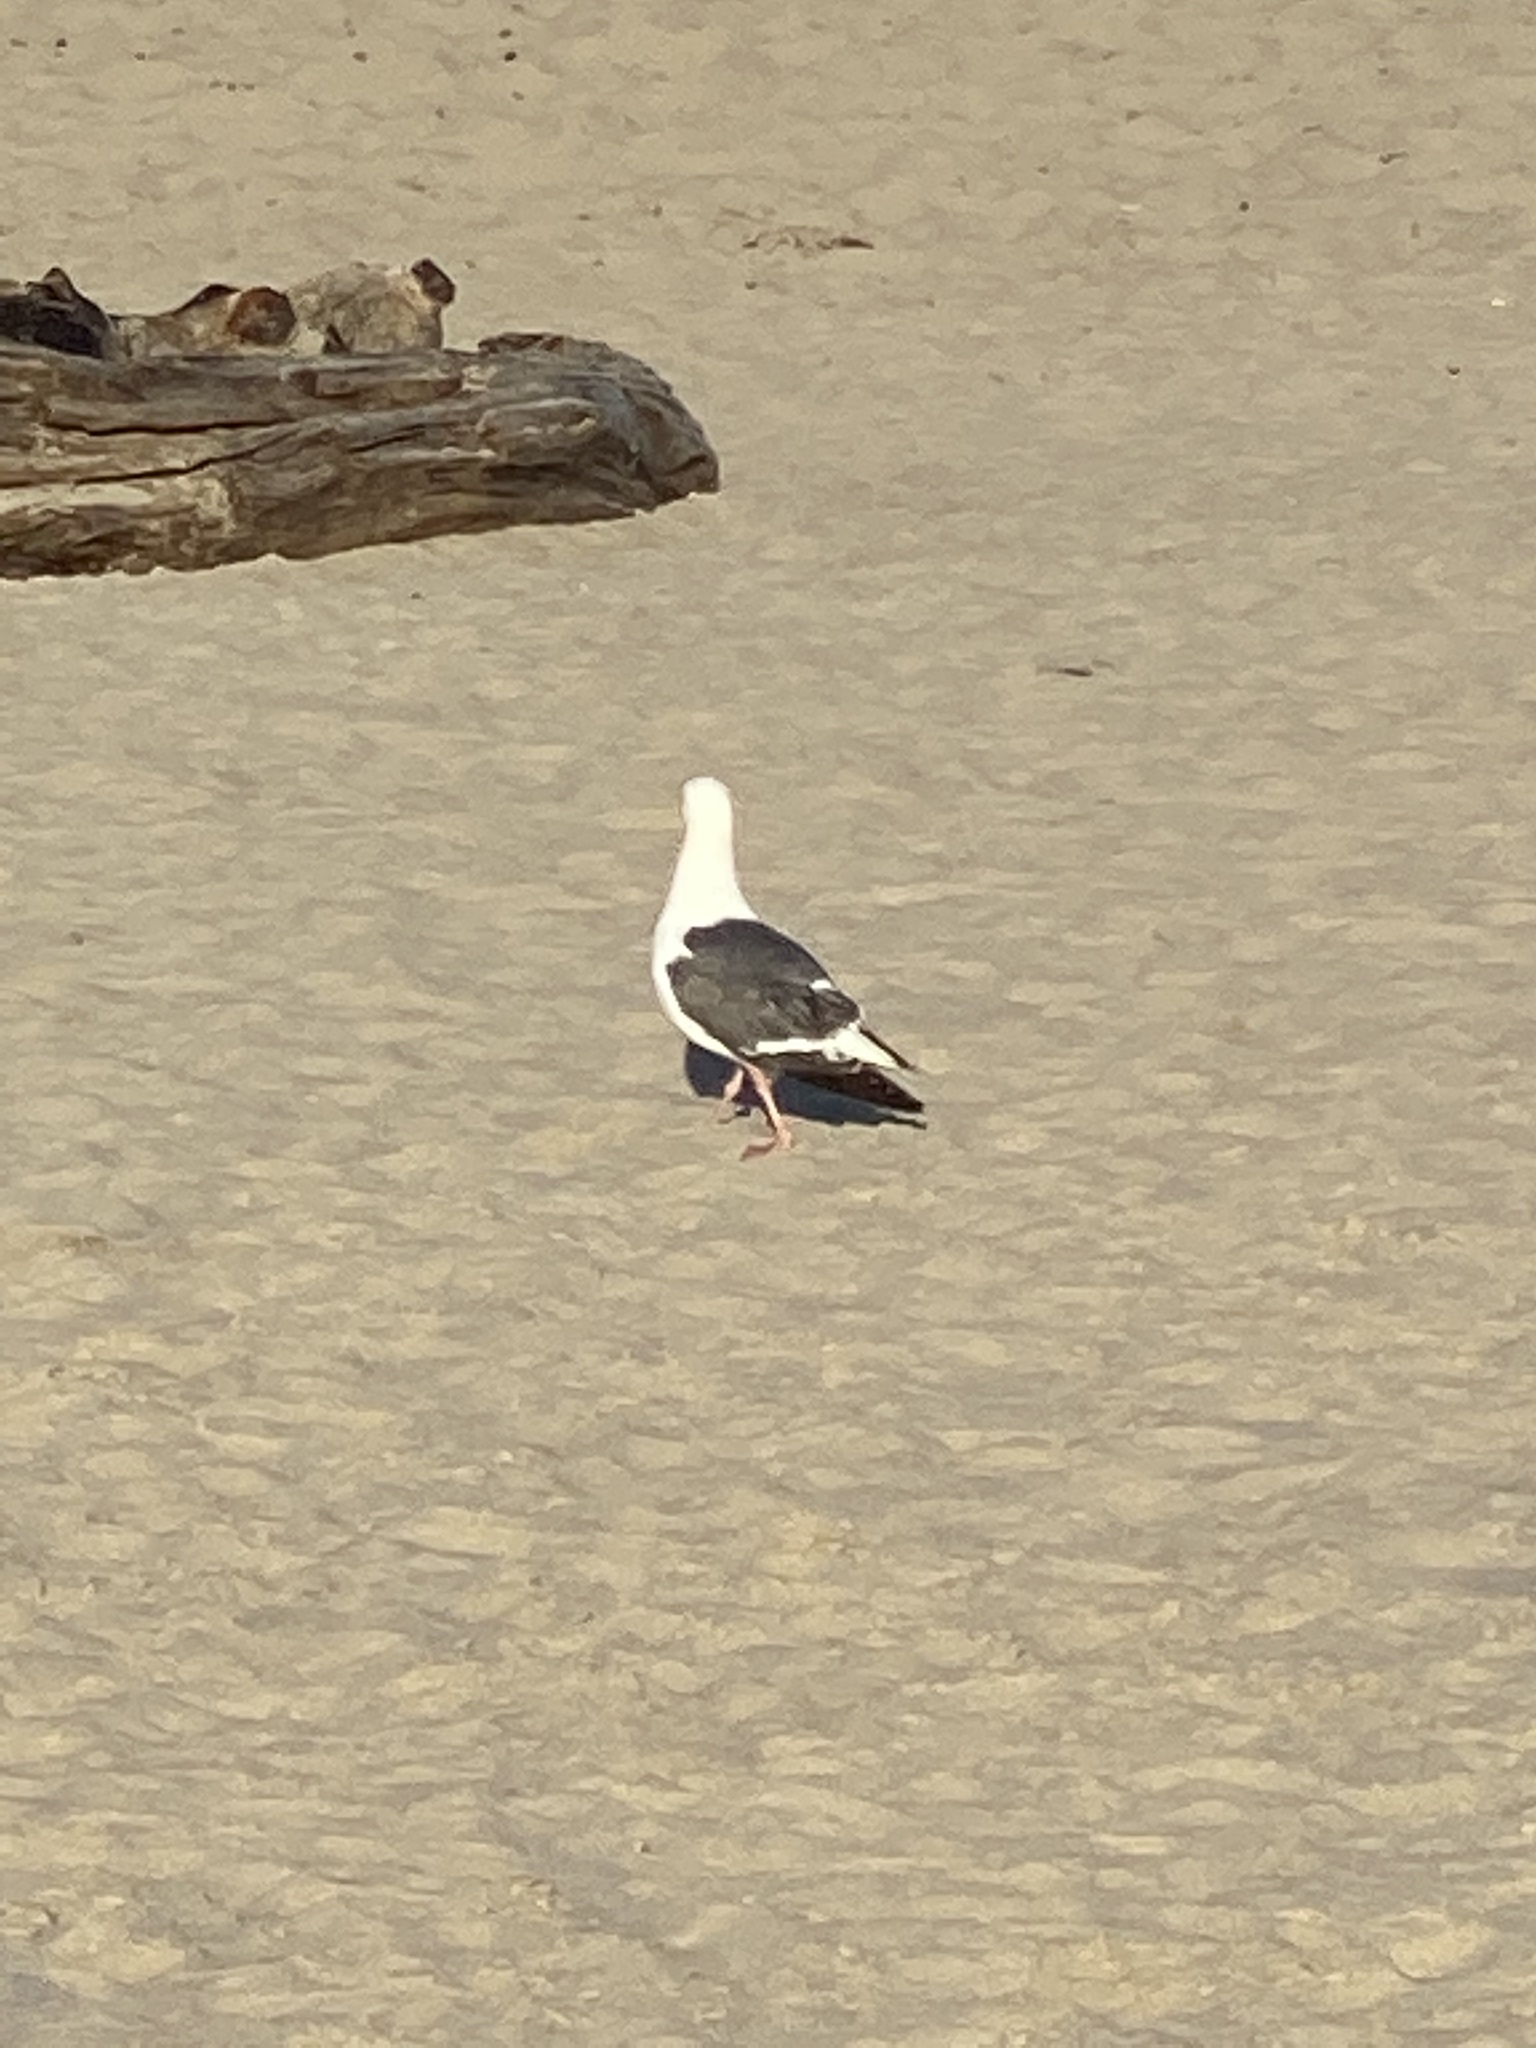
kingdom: Animalia
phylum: Chordata
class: Aves
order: Charadriiformes
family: Laridae
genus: Larus
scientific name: Larus occidentalis
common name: Western gull
